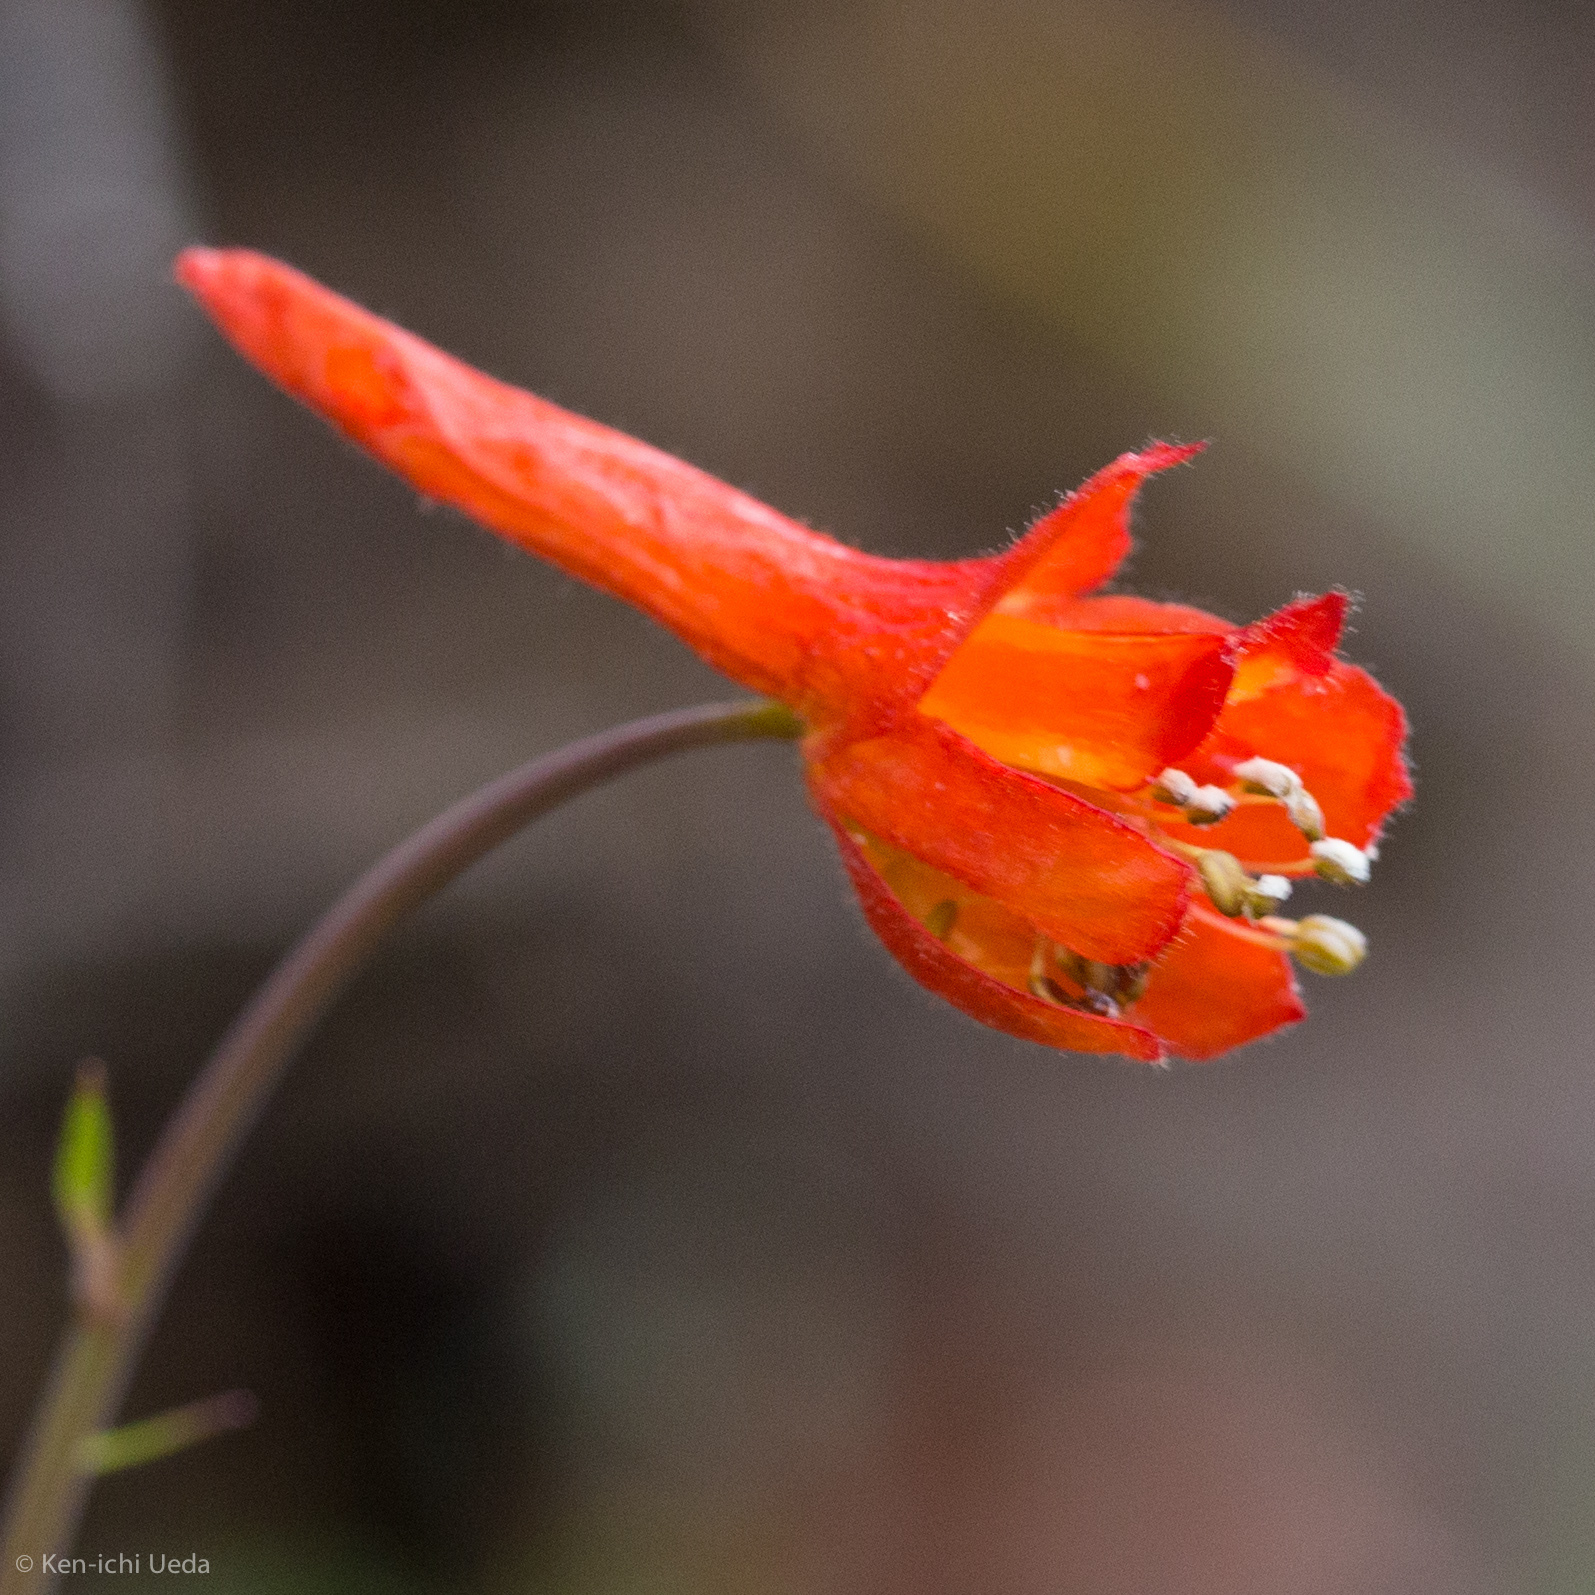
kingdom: Plantae
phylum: Tracheophyta
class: Magnoliopsida
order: Ranunculales
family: Ranunculaceae
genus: Delphinium
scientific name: Delphinium nudicaule
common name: Red larkspur
